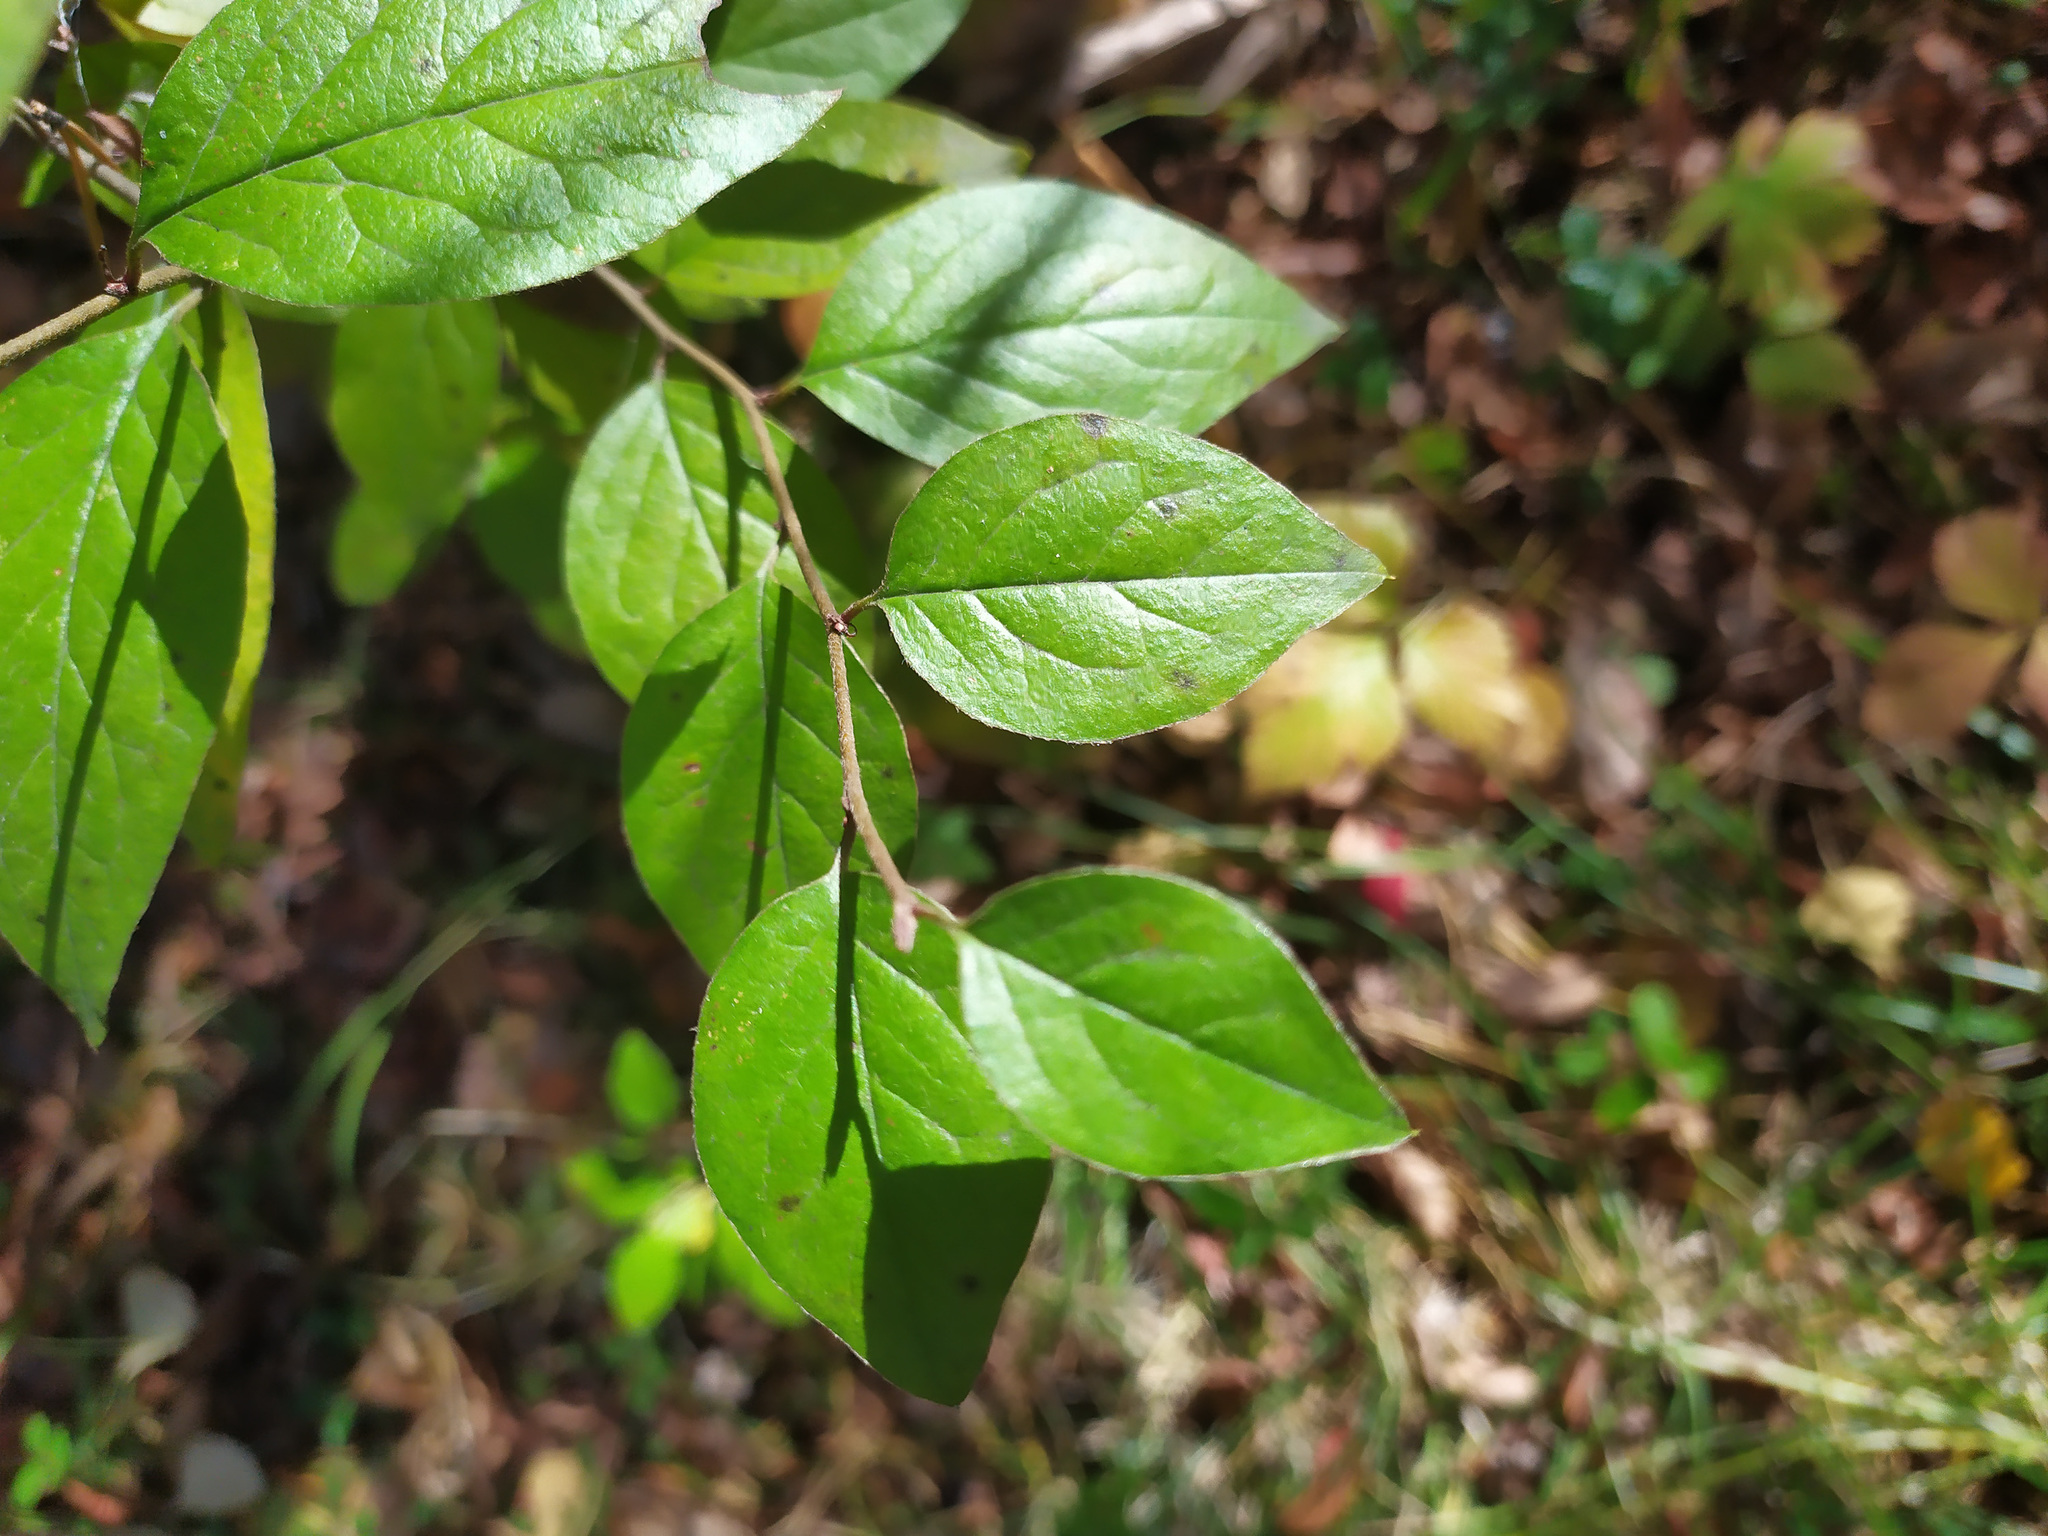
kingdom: Plantae
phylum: Tracheophyta
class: Magnoliopsida
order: Rosales
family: Rosaceae
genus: Cotoneaster
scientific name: Cotoneaster acutifolius
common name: Peking cotoneaster
